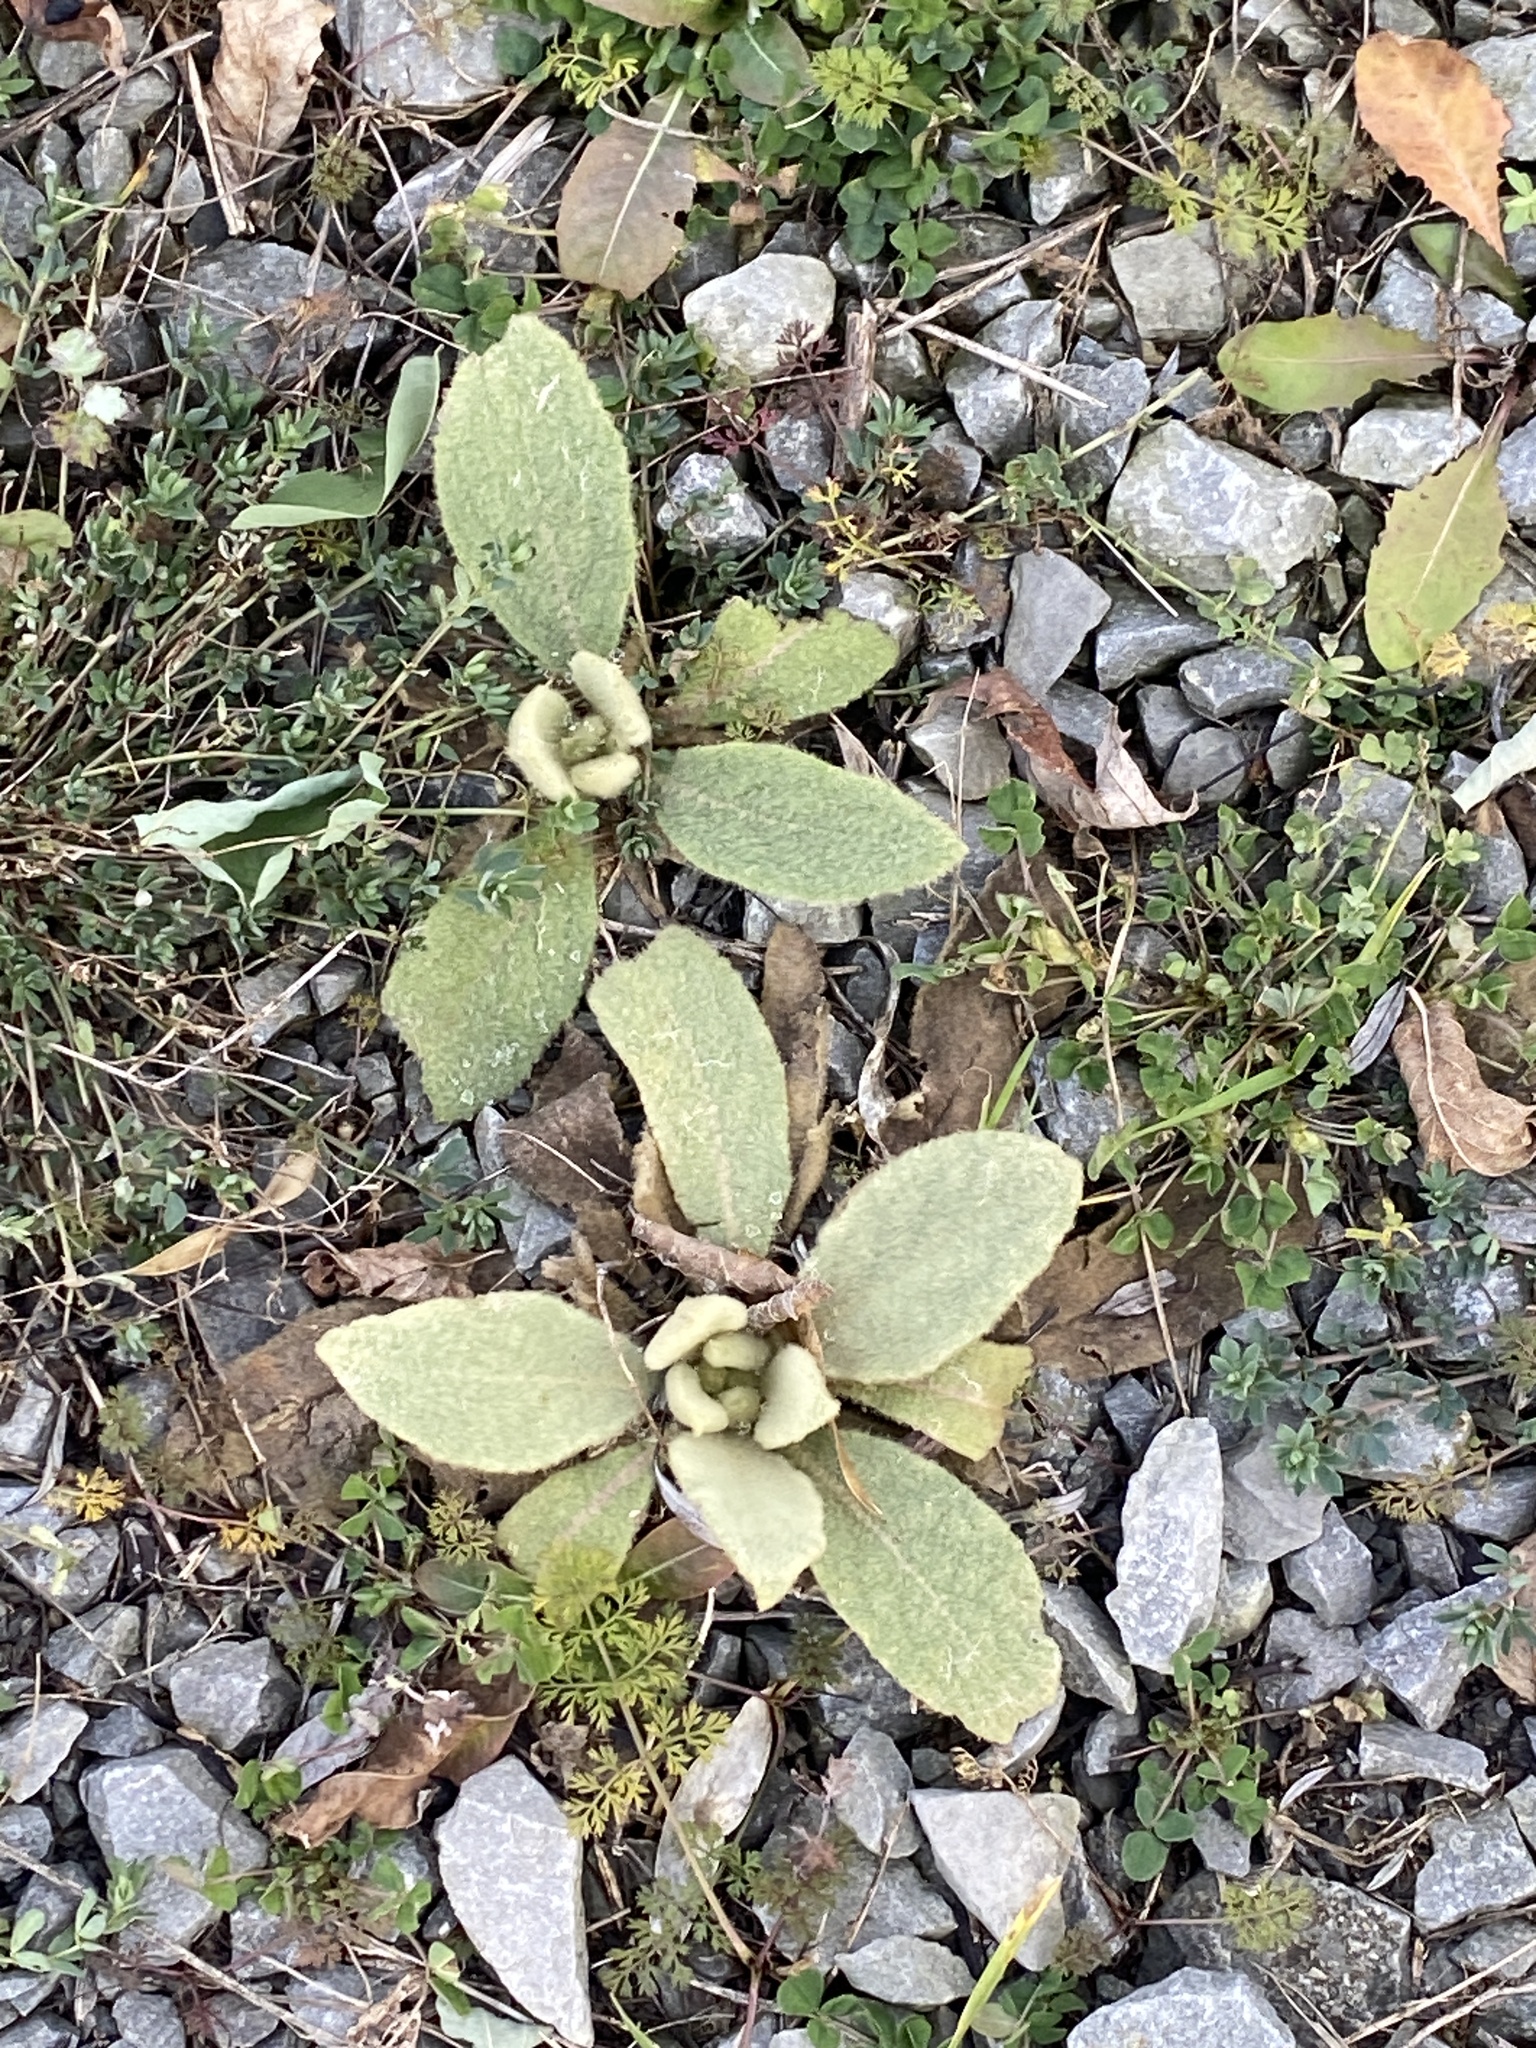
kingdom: Plantae
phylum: Tracheophyta
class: Magnoliopsida
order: Lamiales
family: Scrophulariaceae
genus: Verbascum
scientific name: Verbascum thapsus
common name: Common mullein
